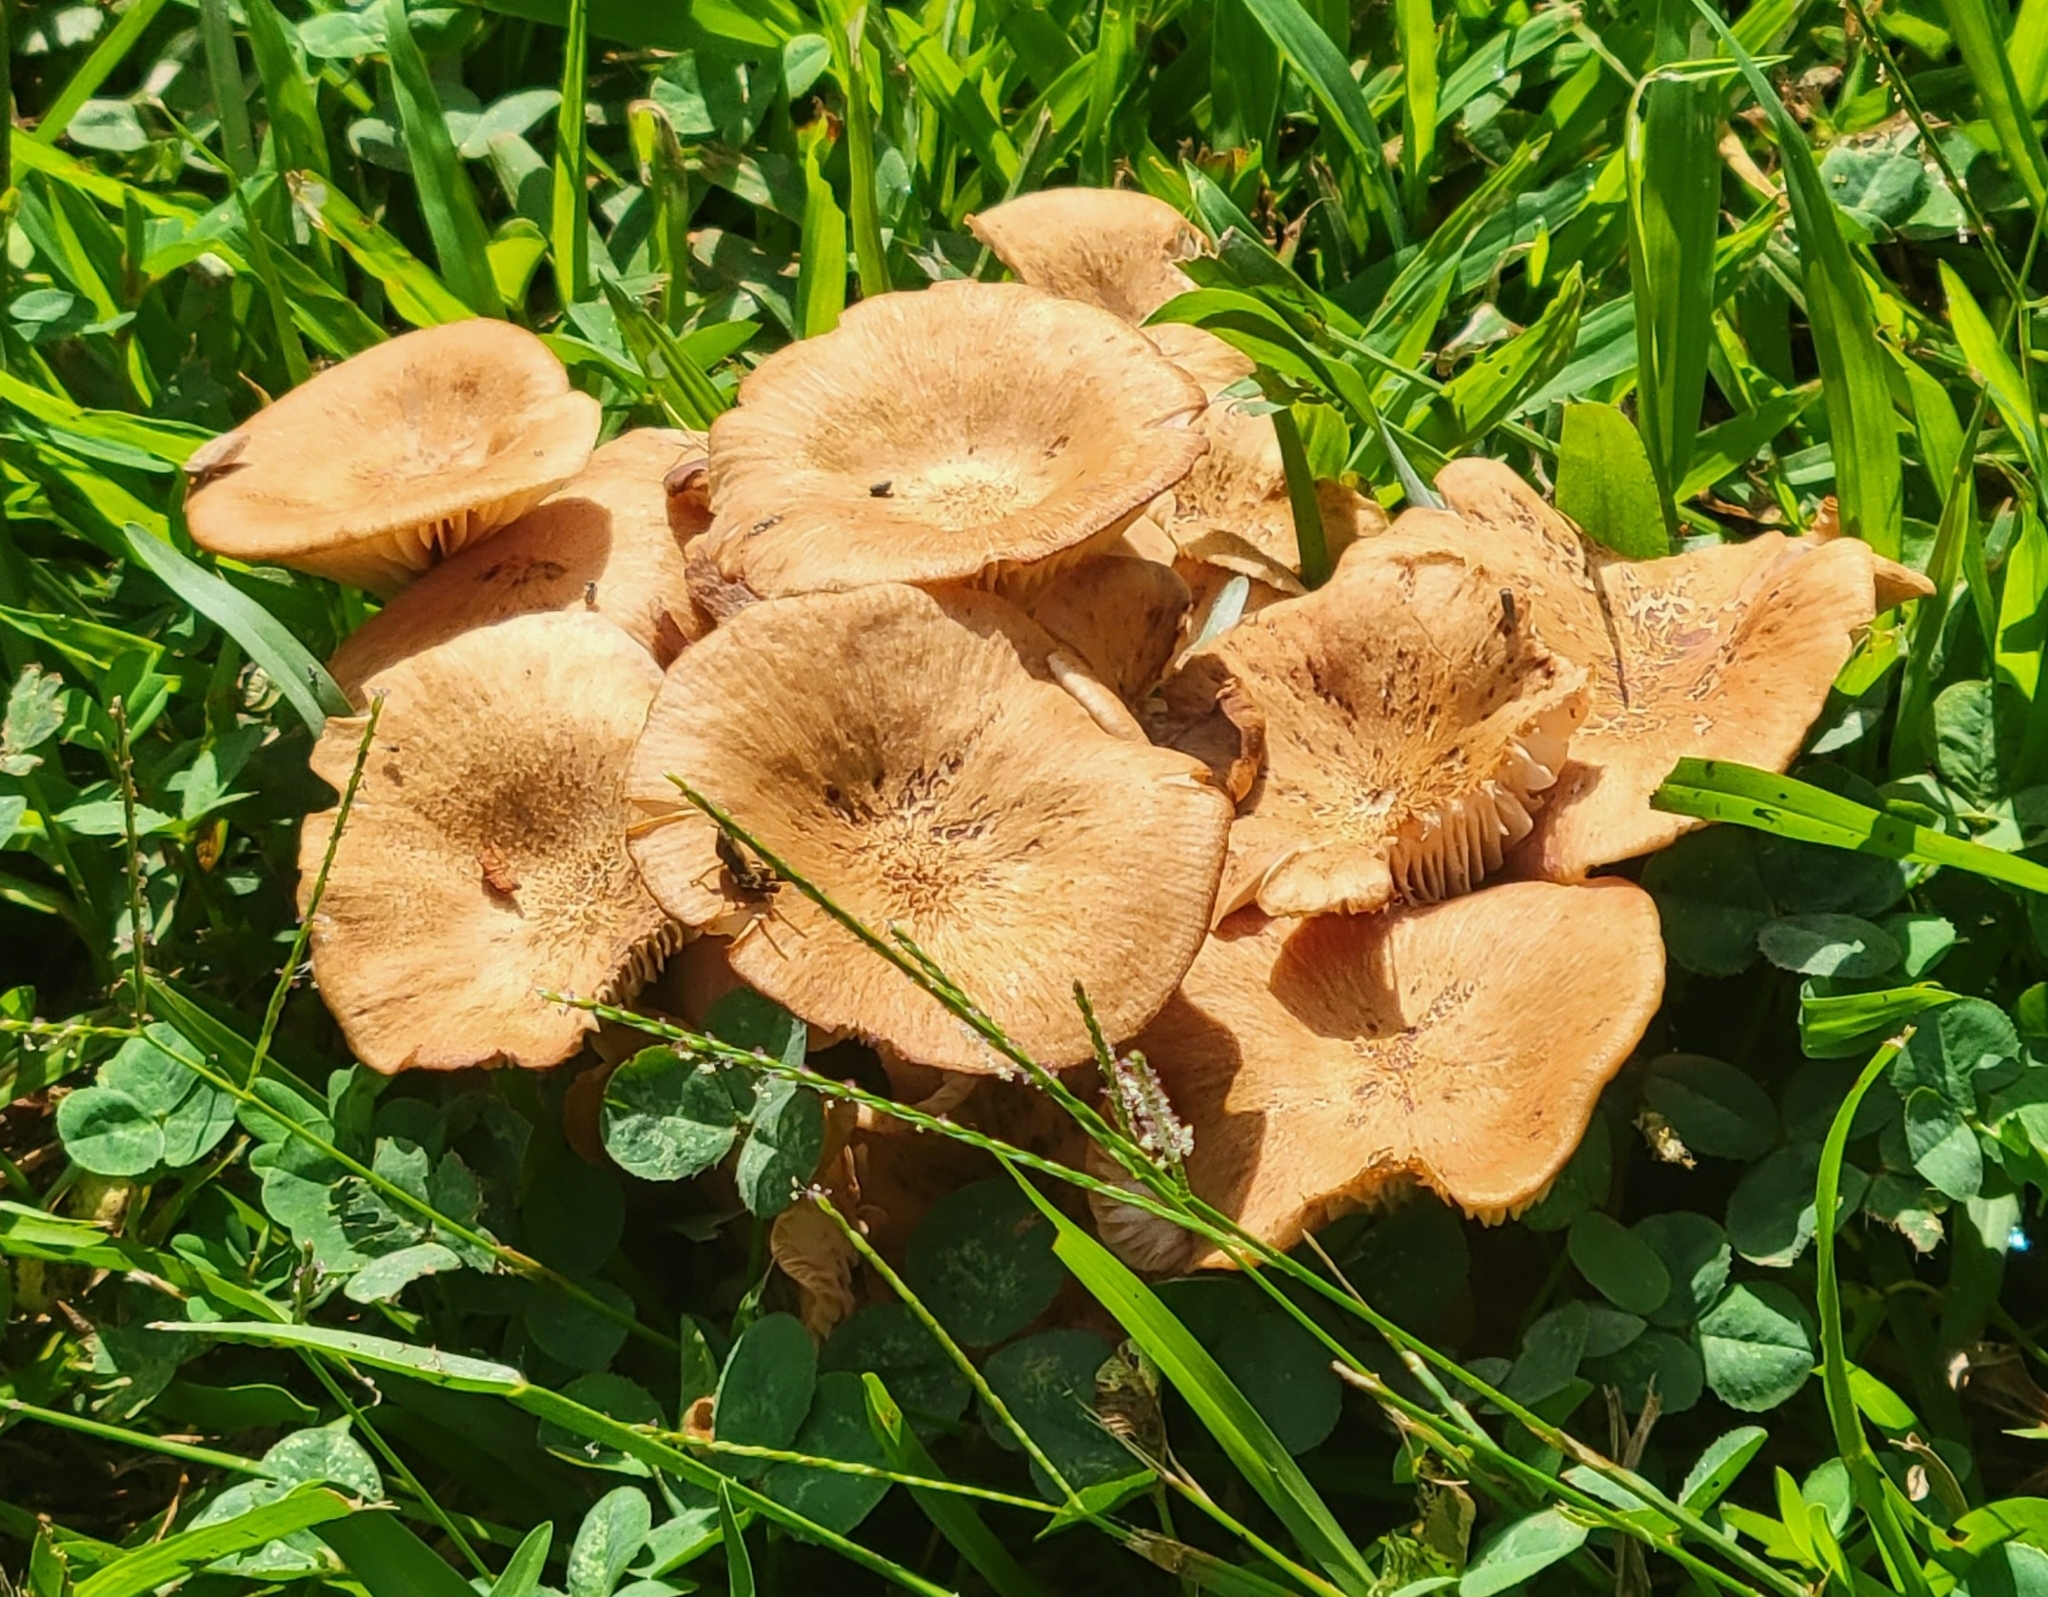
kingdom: Fungi
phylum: Basidiomycota
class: Agaricomycetes
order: Agaricales
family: Physalacriaceae
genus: Desarmillaria
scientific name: Desarmillaria caespitosa
